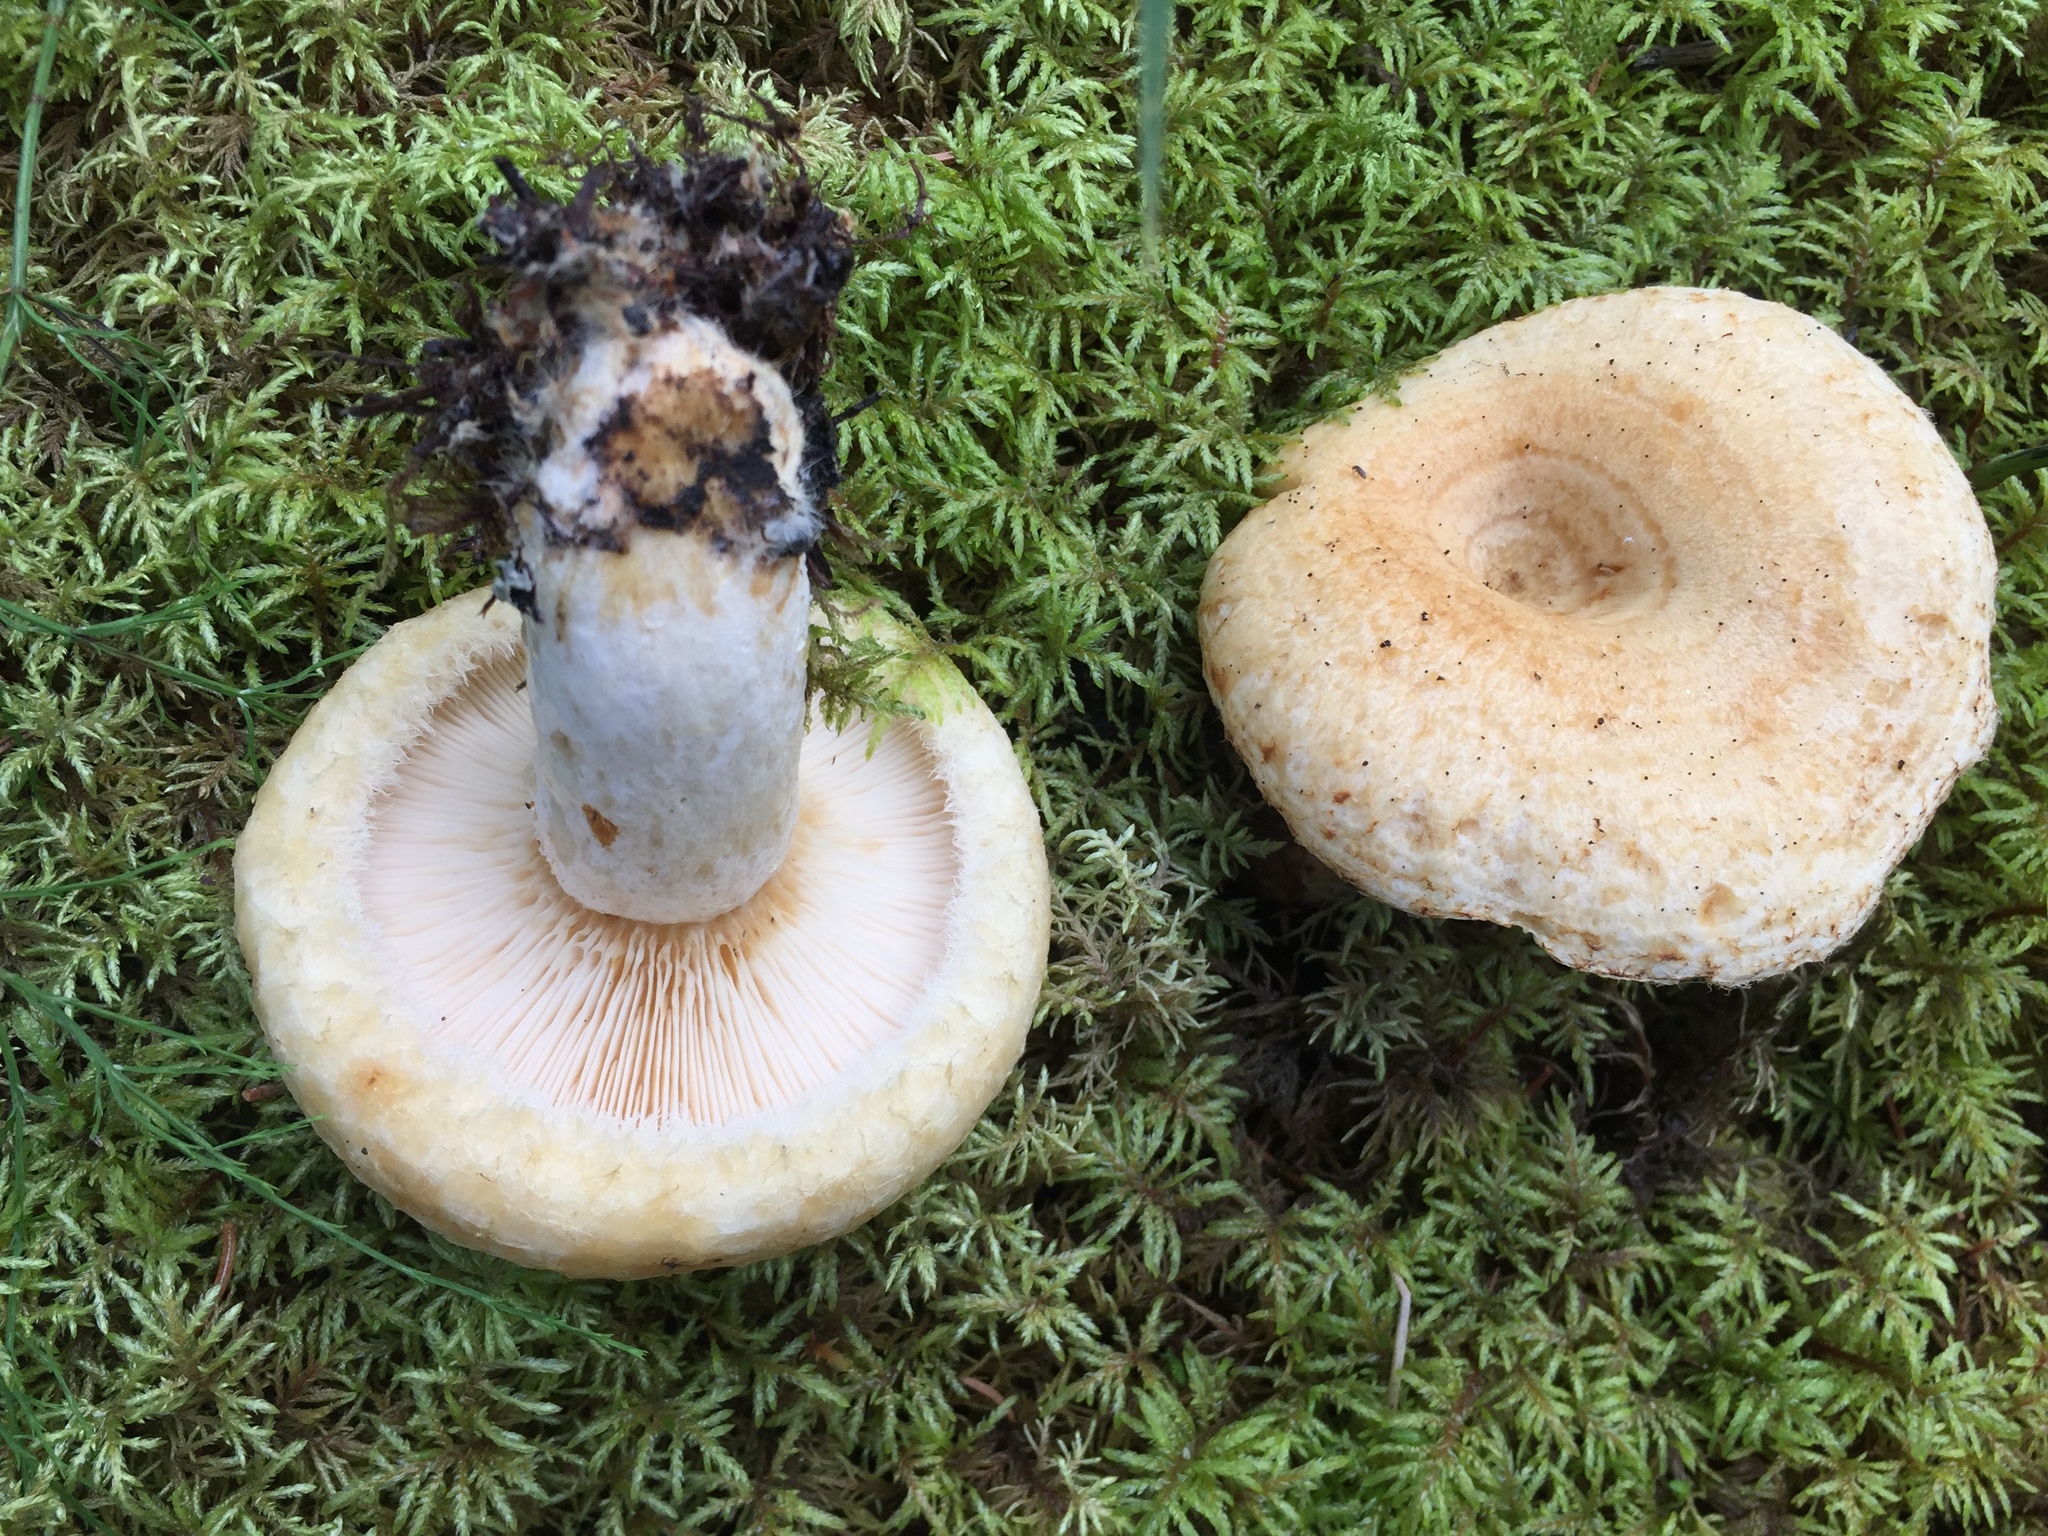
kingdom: Fungi
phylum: Basidiomycota
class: Agaricomycetes
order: Russulales
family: Russulaceae
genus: Lactarius
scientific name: Lactarius scrobiculatus
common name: Spotted milkcap
